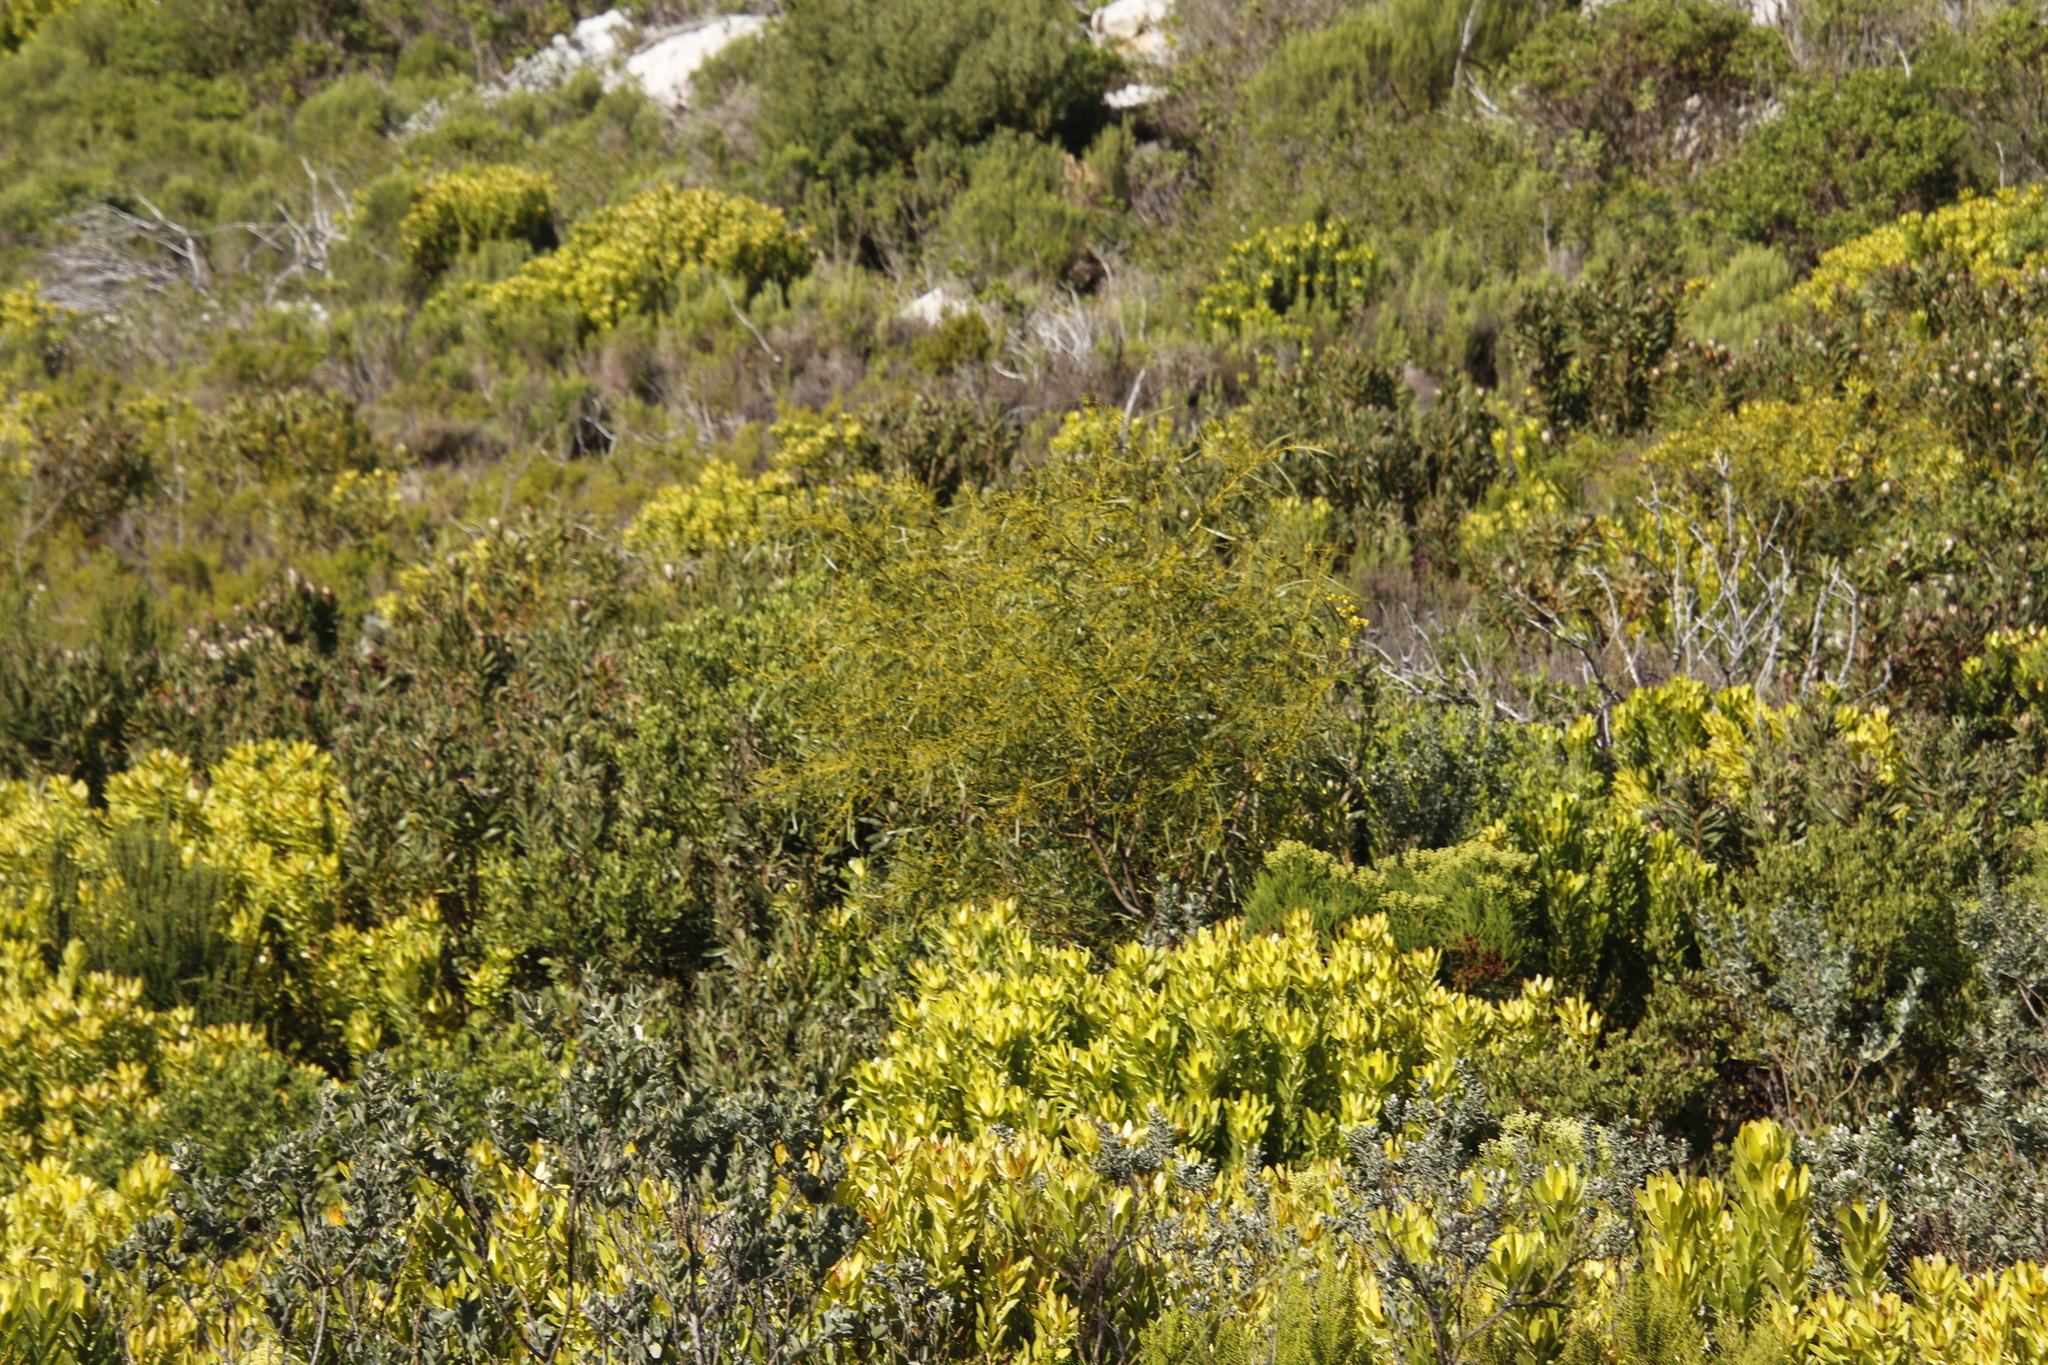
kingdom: Plantae
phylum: Tracheophyta
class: Magnoliopsida
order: Fabales
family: Fabaceae
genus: Acacia
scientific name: Acacia saligna
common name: Orange wattle
